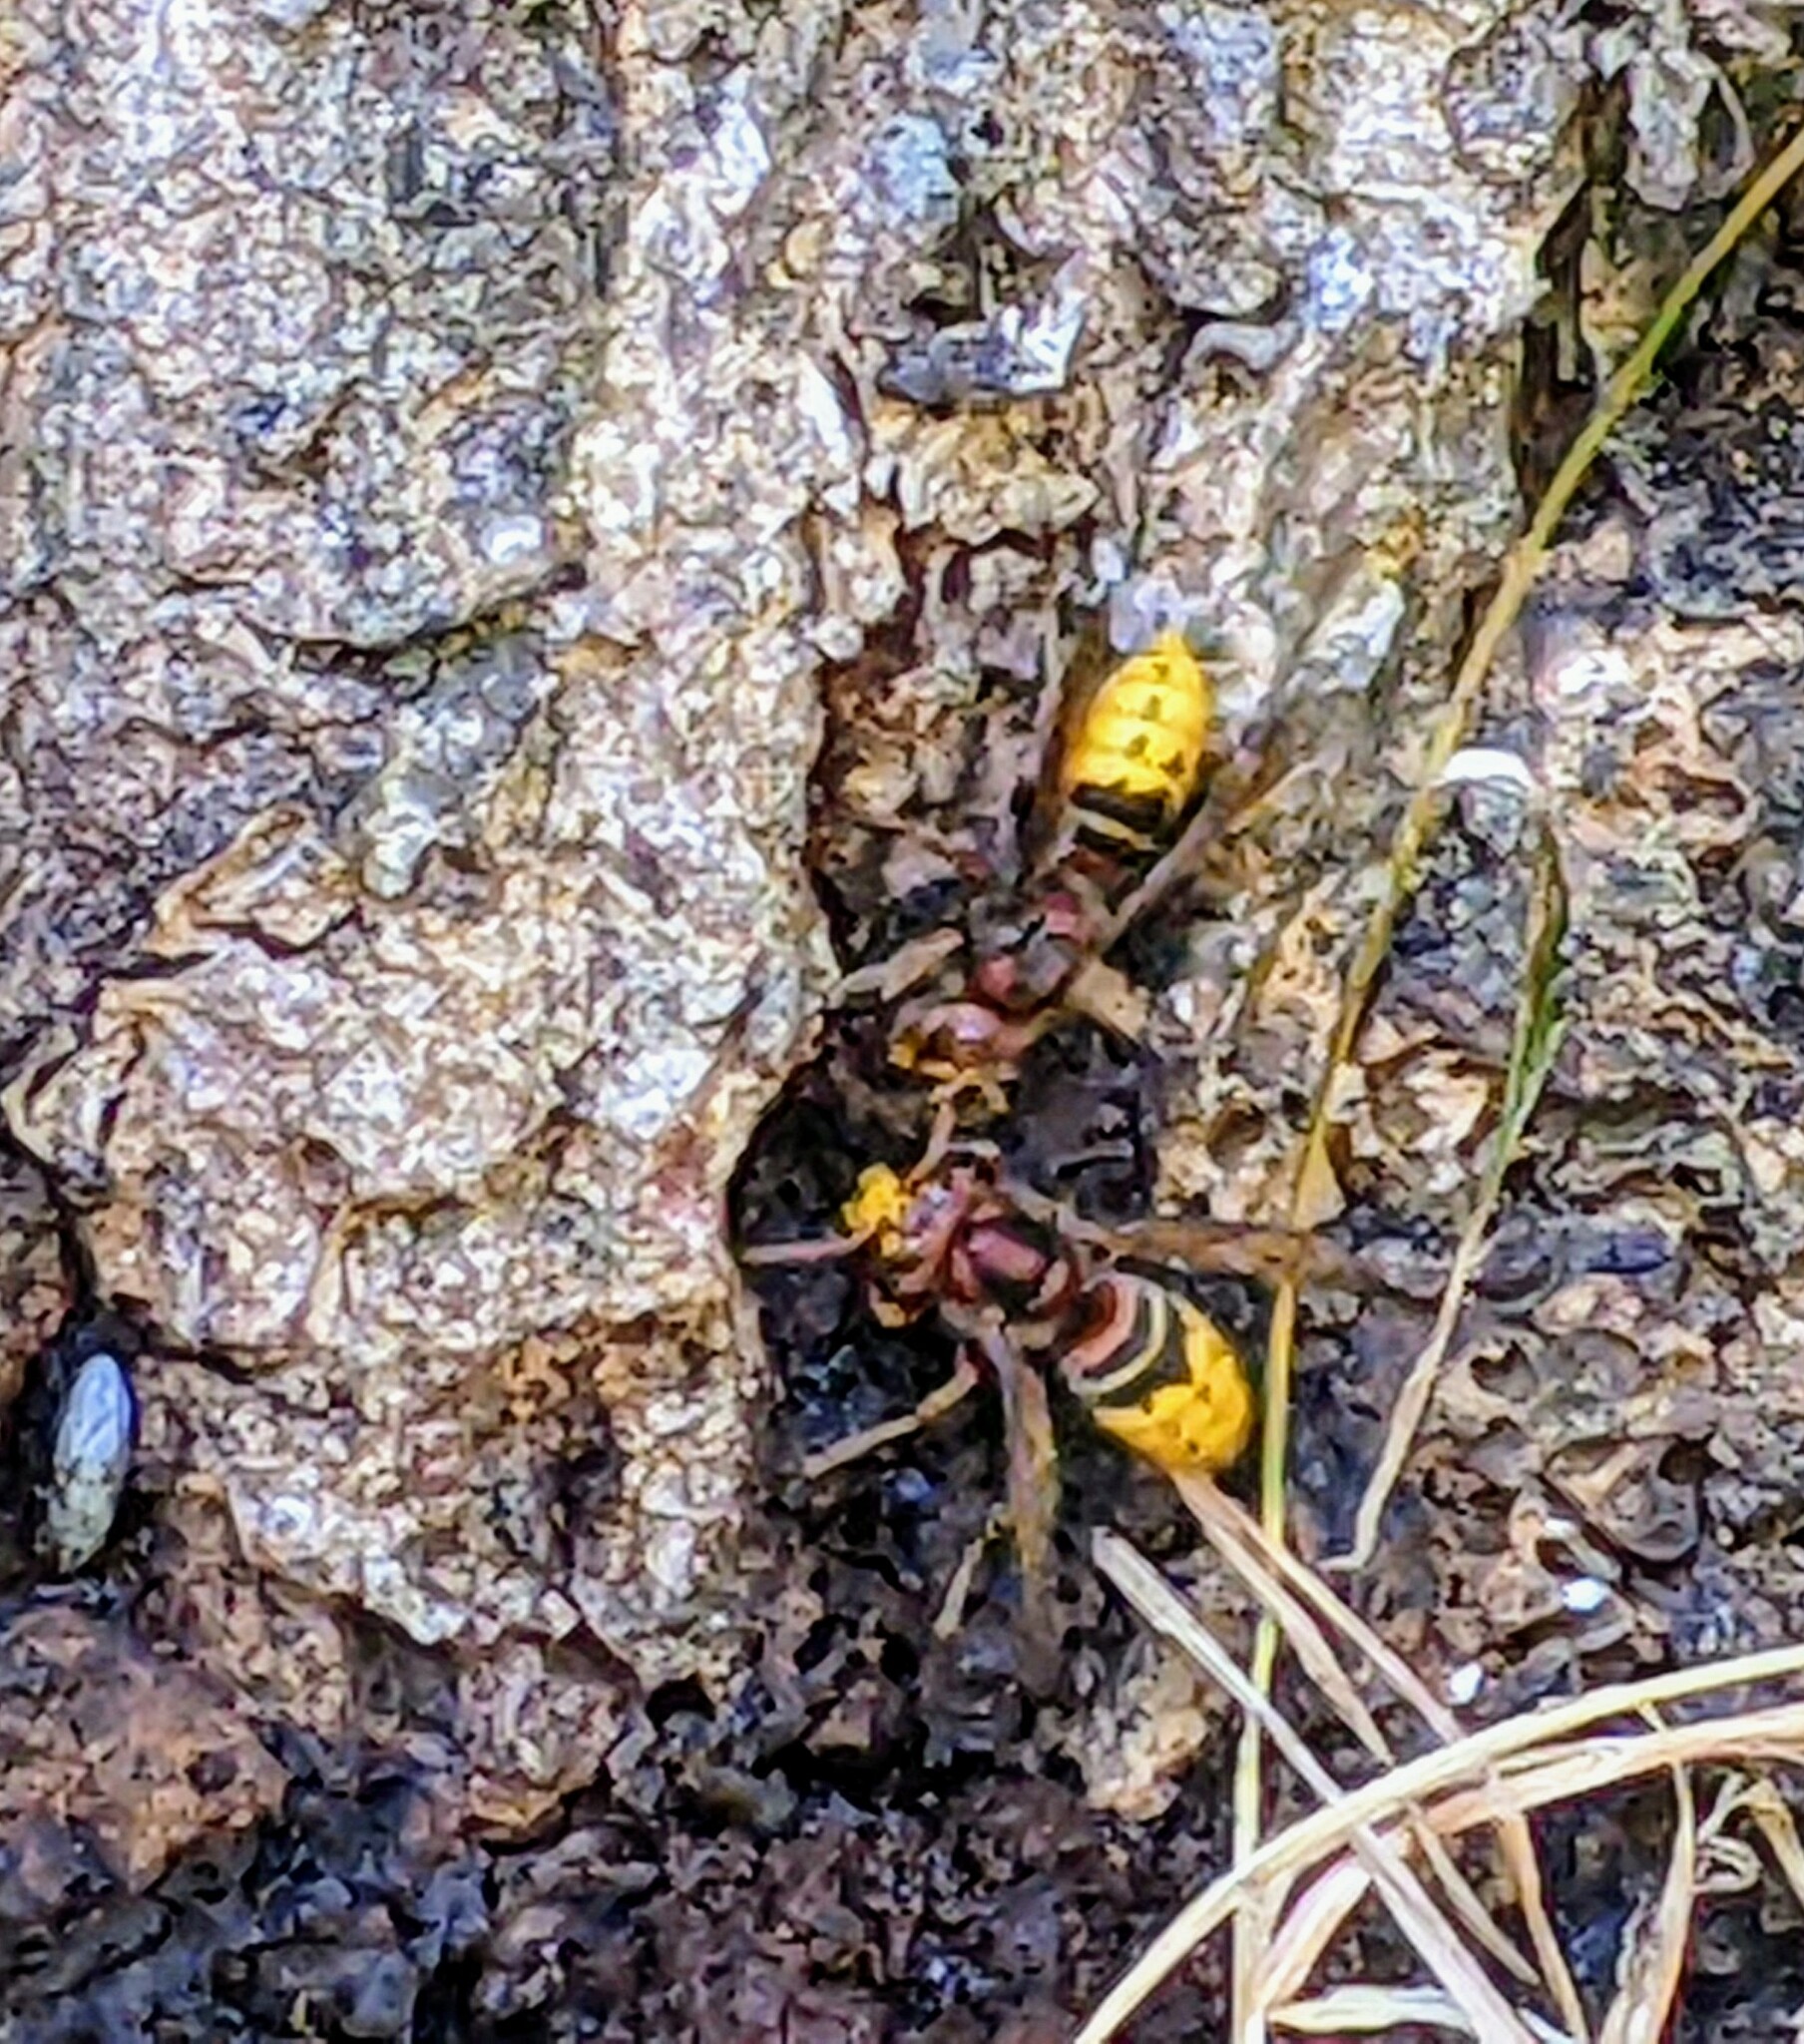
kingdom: Animalia
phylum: Arthropoda
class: Insecta
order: Hymenoptera
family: Vespidae
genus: Vespa
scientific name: Vespa crabro
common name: Hornet
